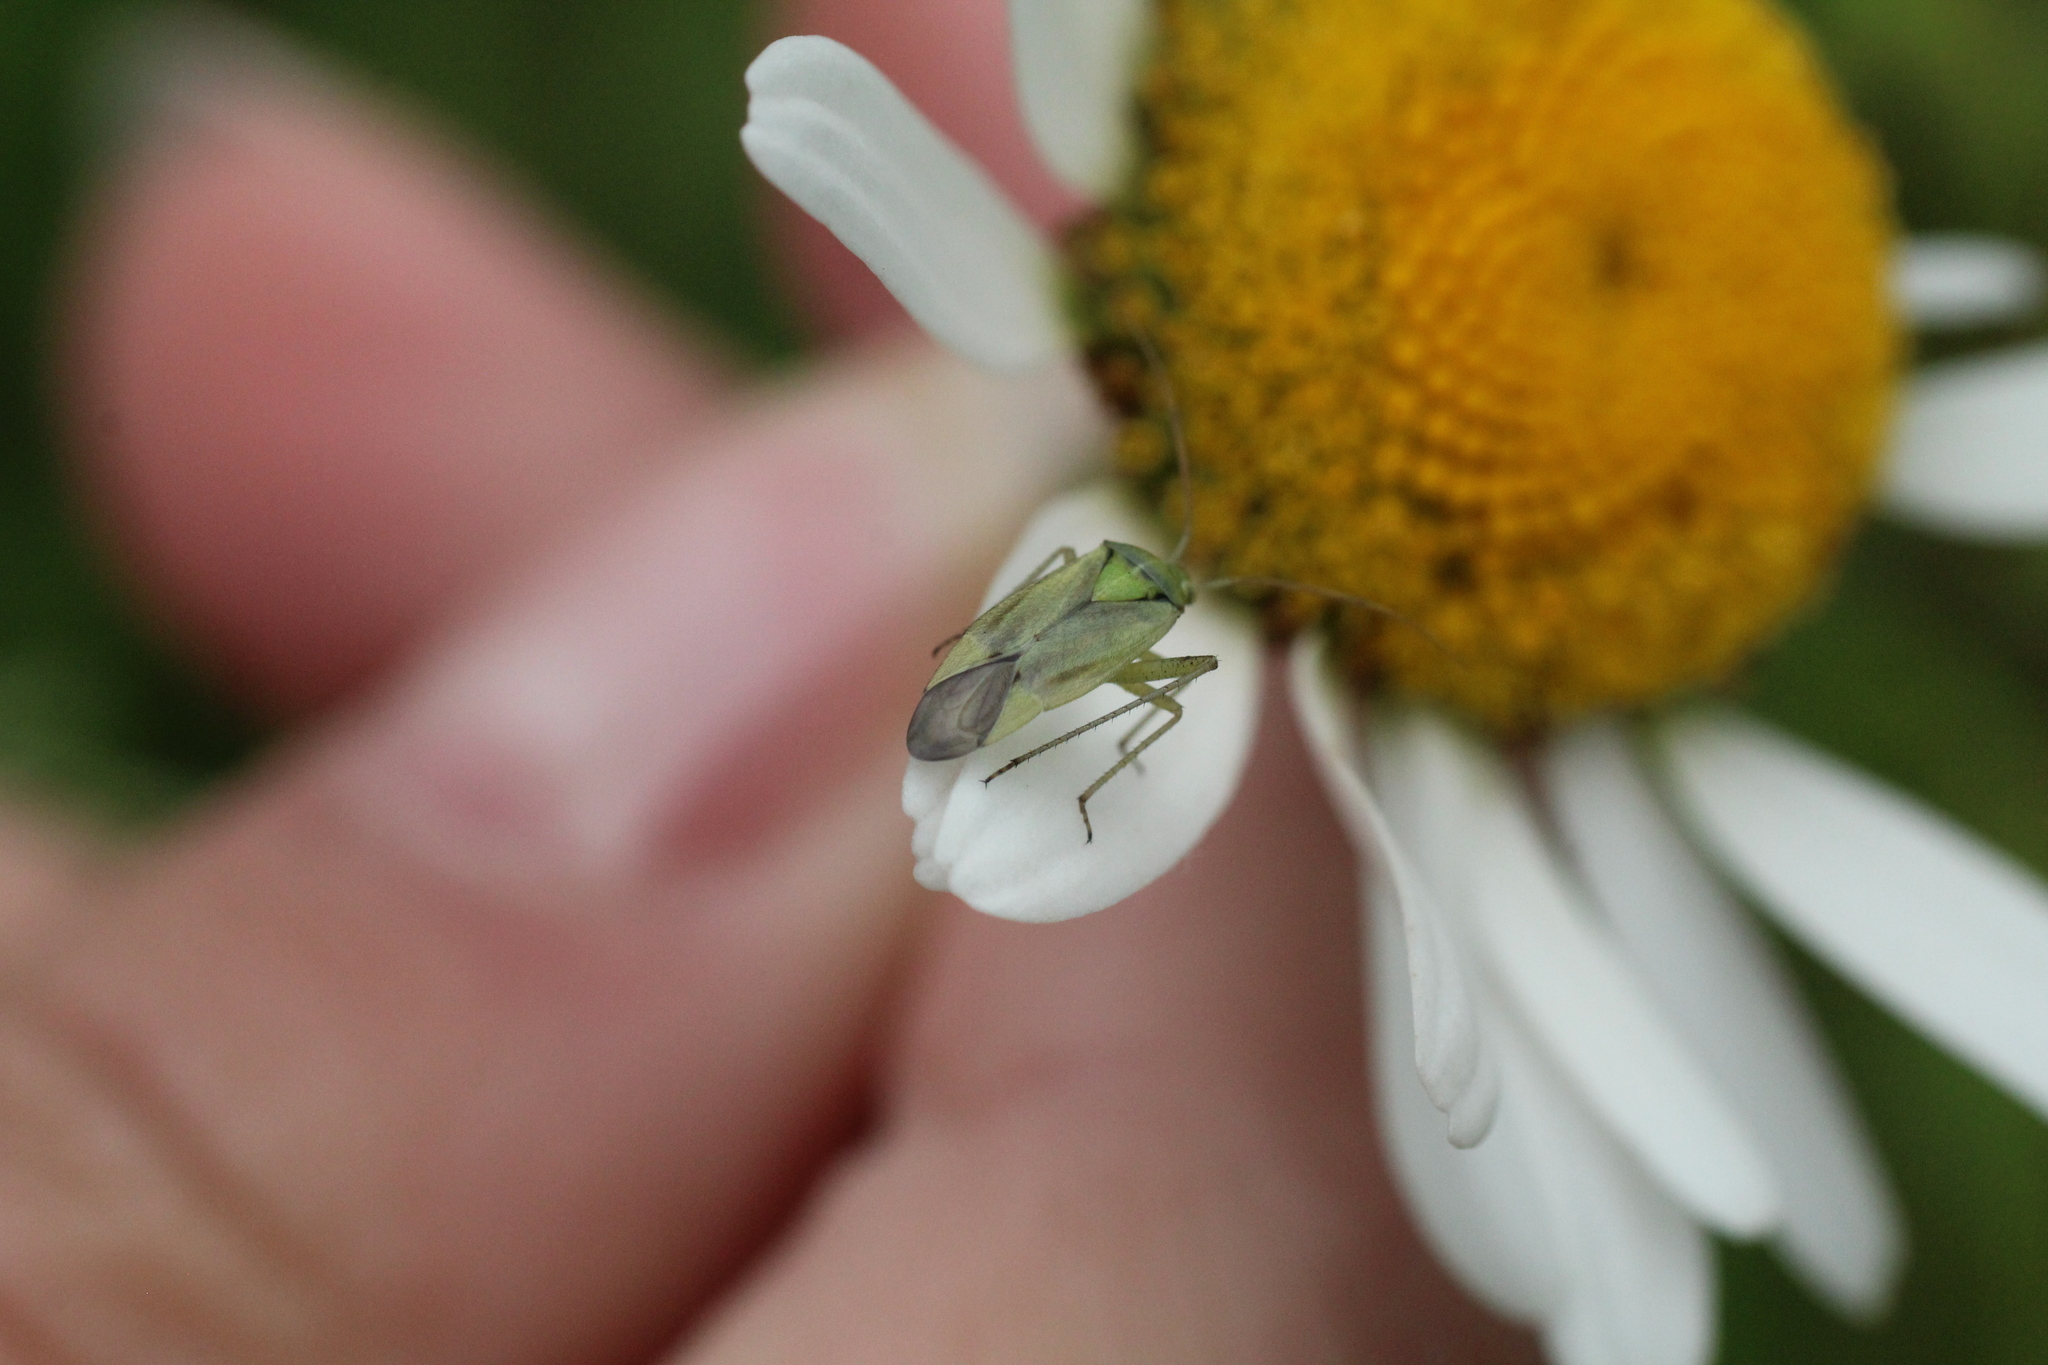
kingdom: Animalia
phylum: Arthropoda
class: Insecta
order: Hemiptera
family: Miridae
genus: Closterotomus
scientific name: Closterotomus norvegicus
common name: Plant bug
